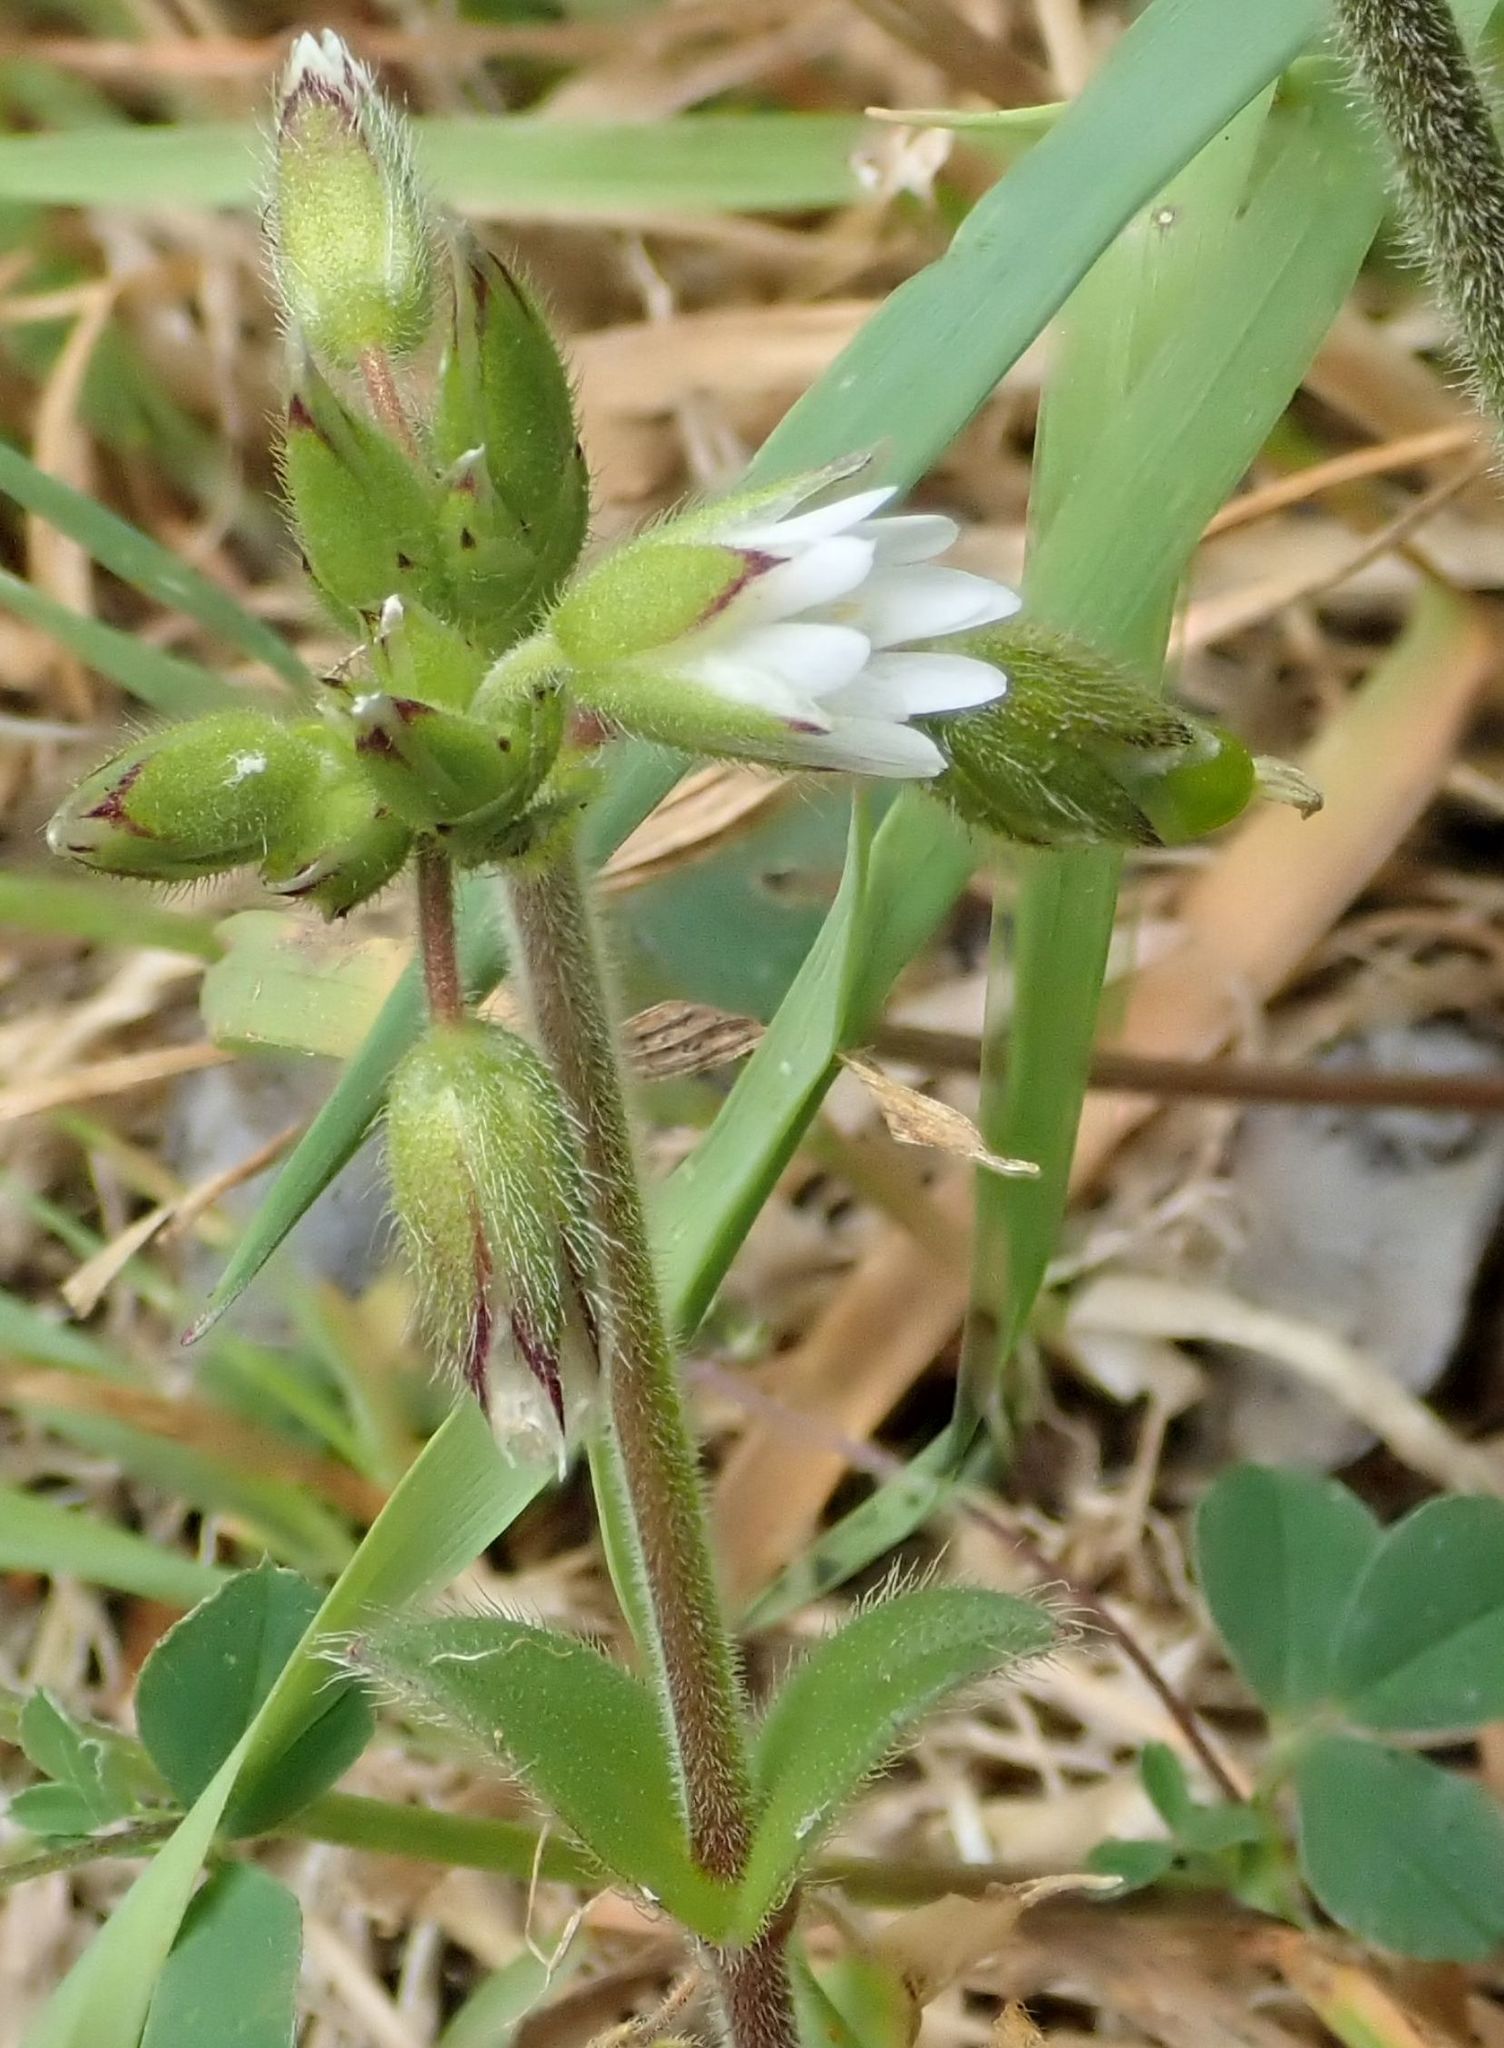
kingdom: Plantae
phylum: Tracheophyta
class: Magnoliopsida
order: Caryophyllales
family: Caryophyllaceae
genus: Cerastium
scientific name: Cerastium fontanum
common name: Common mouse-ear
